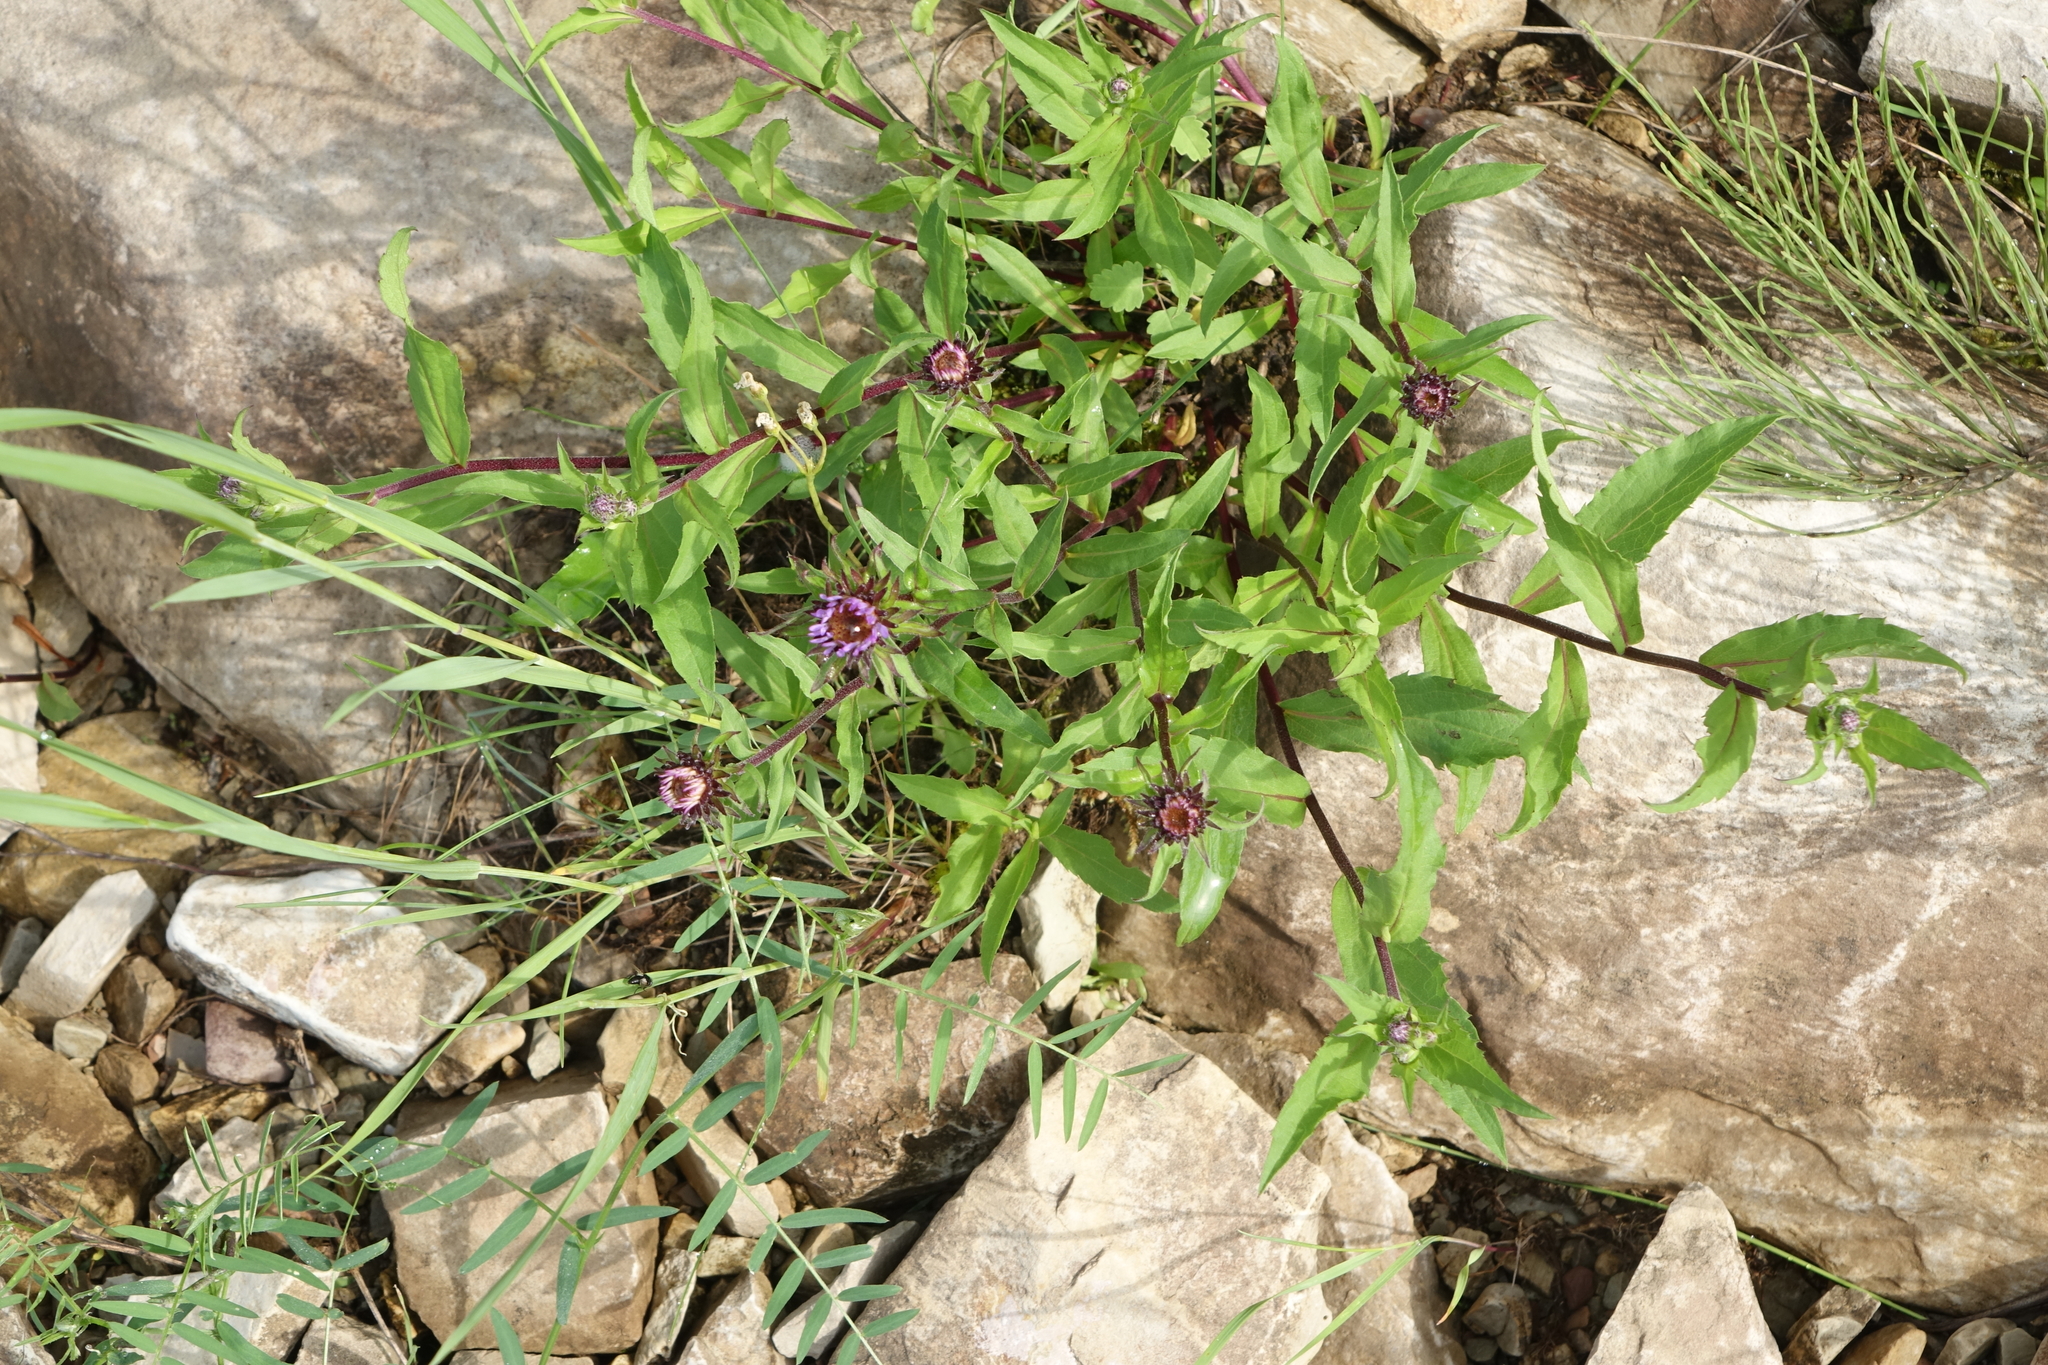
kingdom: Plantae
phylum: Tracheophyta
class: Magnoliopsida
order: Asterales
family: Asteraceae
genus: Eurybia
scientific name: Eurybia sibirica
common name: Arctic aster
